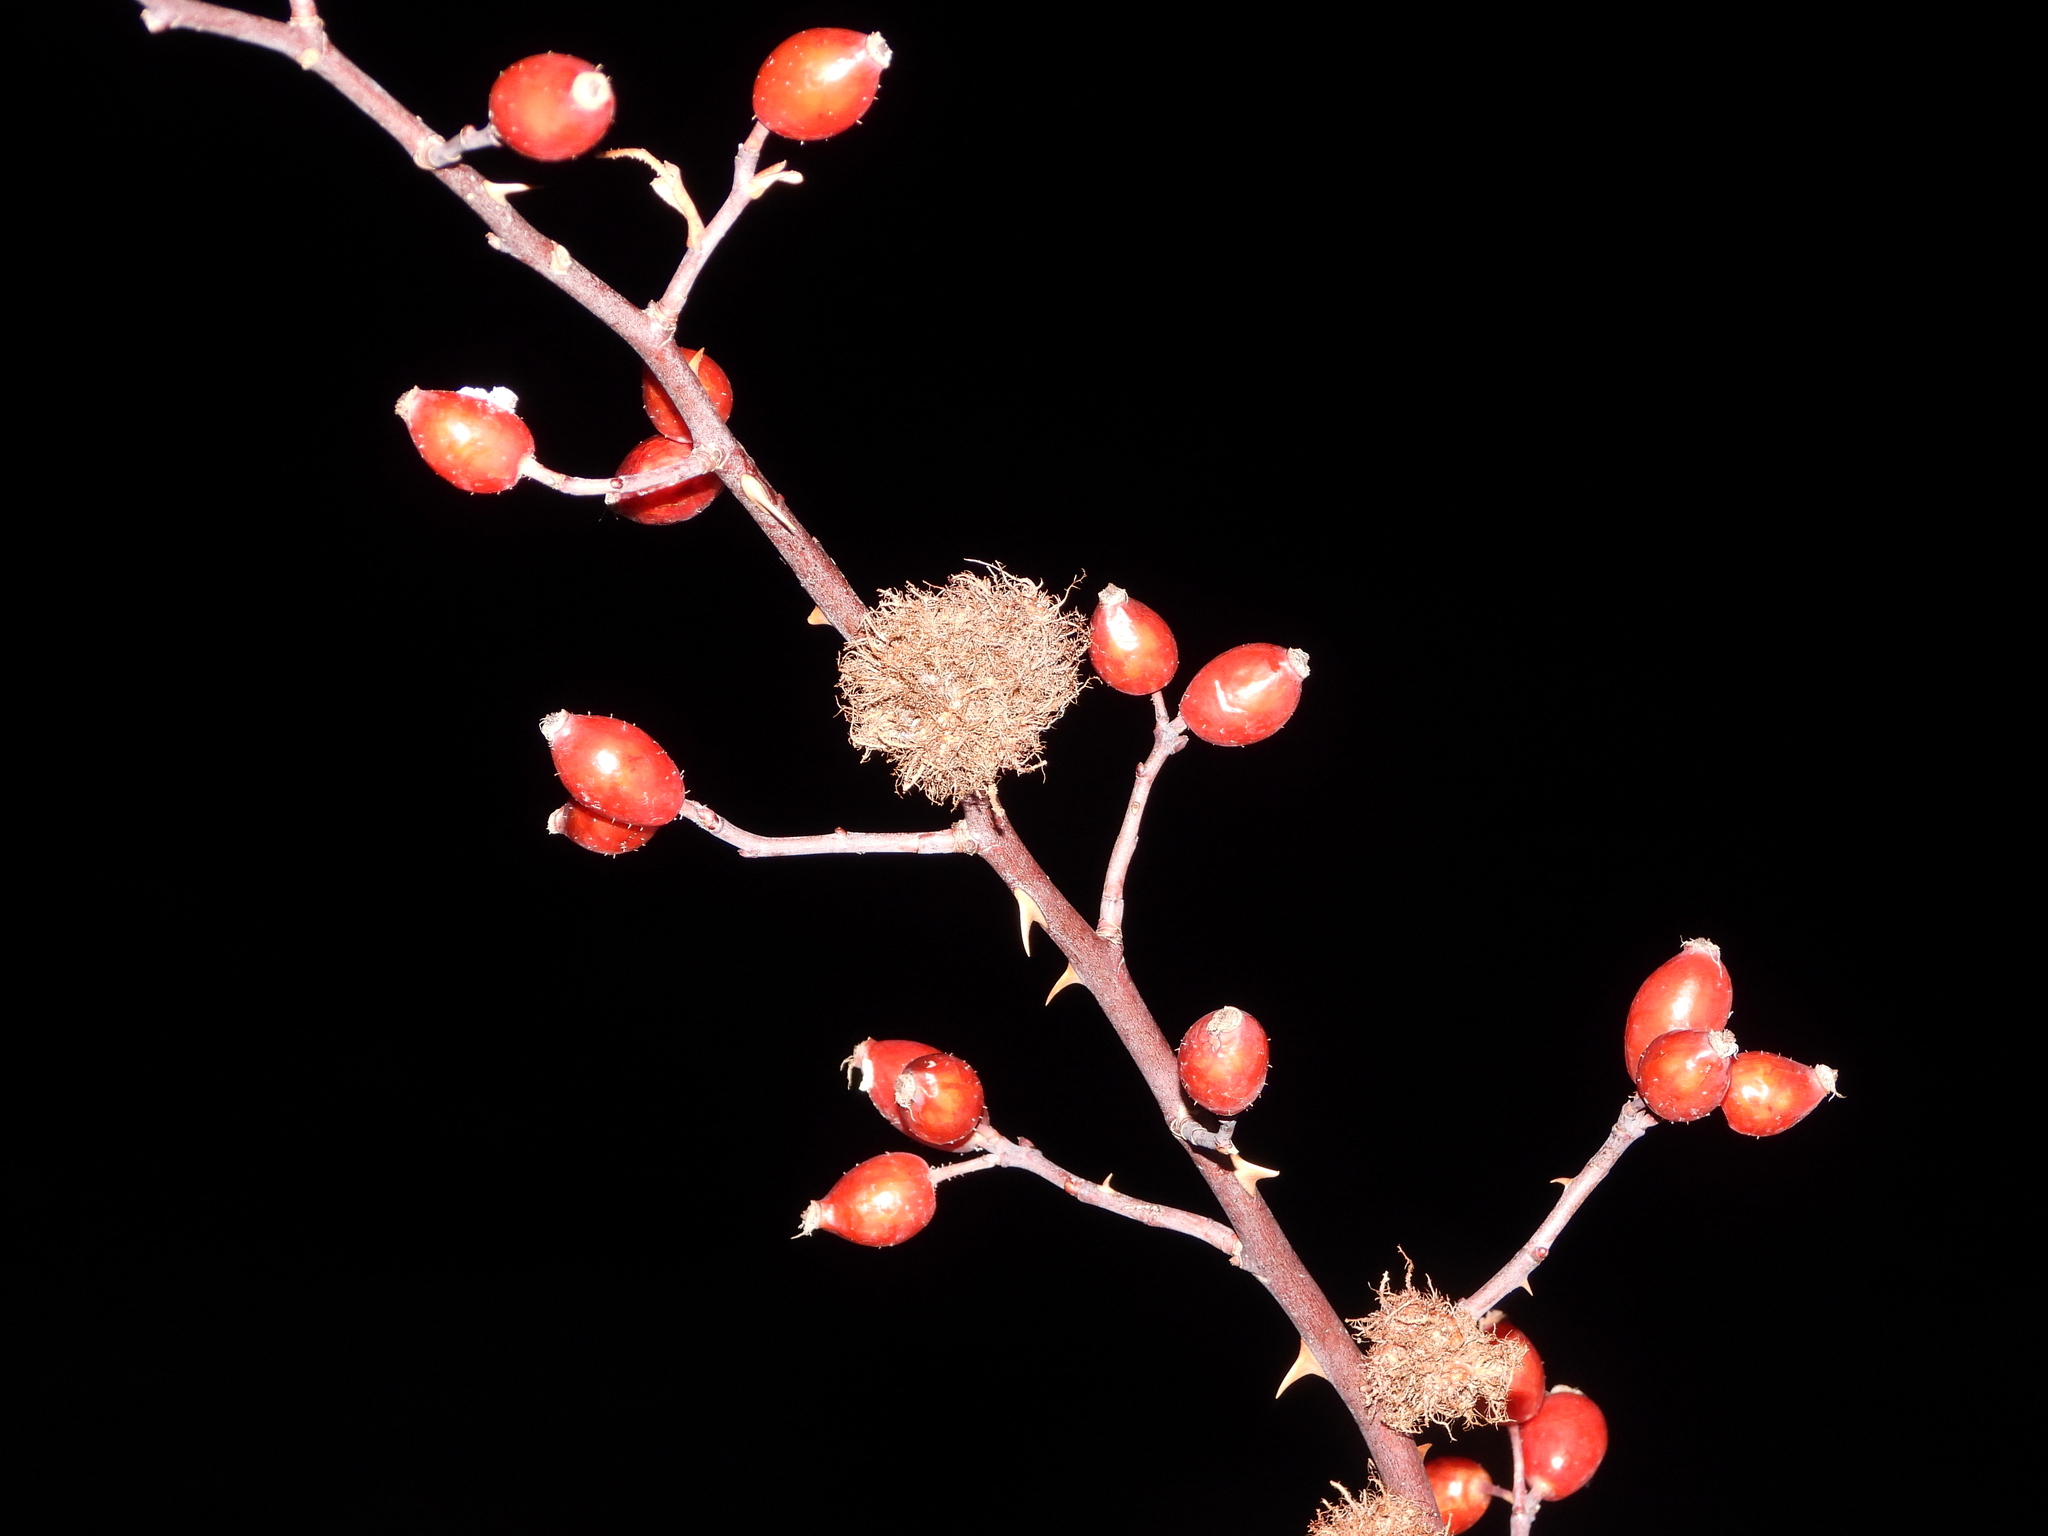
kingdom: Plantae
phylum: Tracheophyta
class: Magnoliopsida
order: Rosales
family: Rosaceae
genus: Rosa
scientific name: Rosa woodsii
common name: Woods's rose
